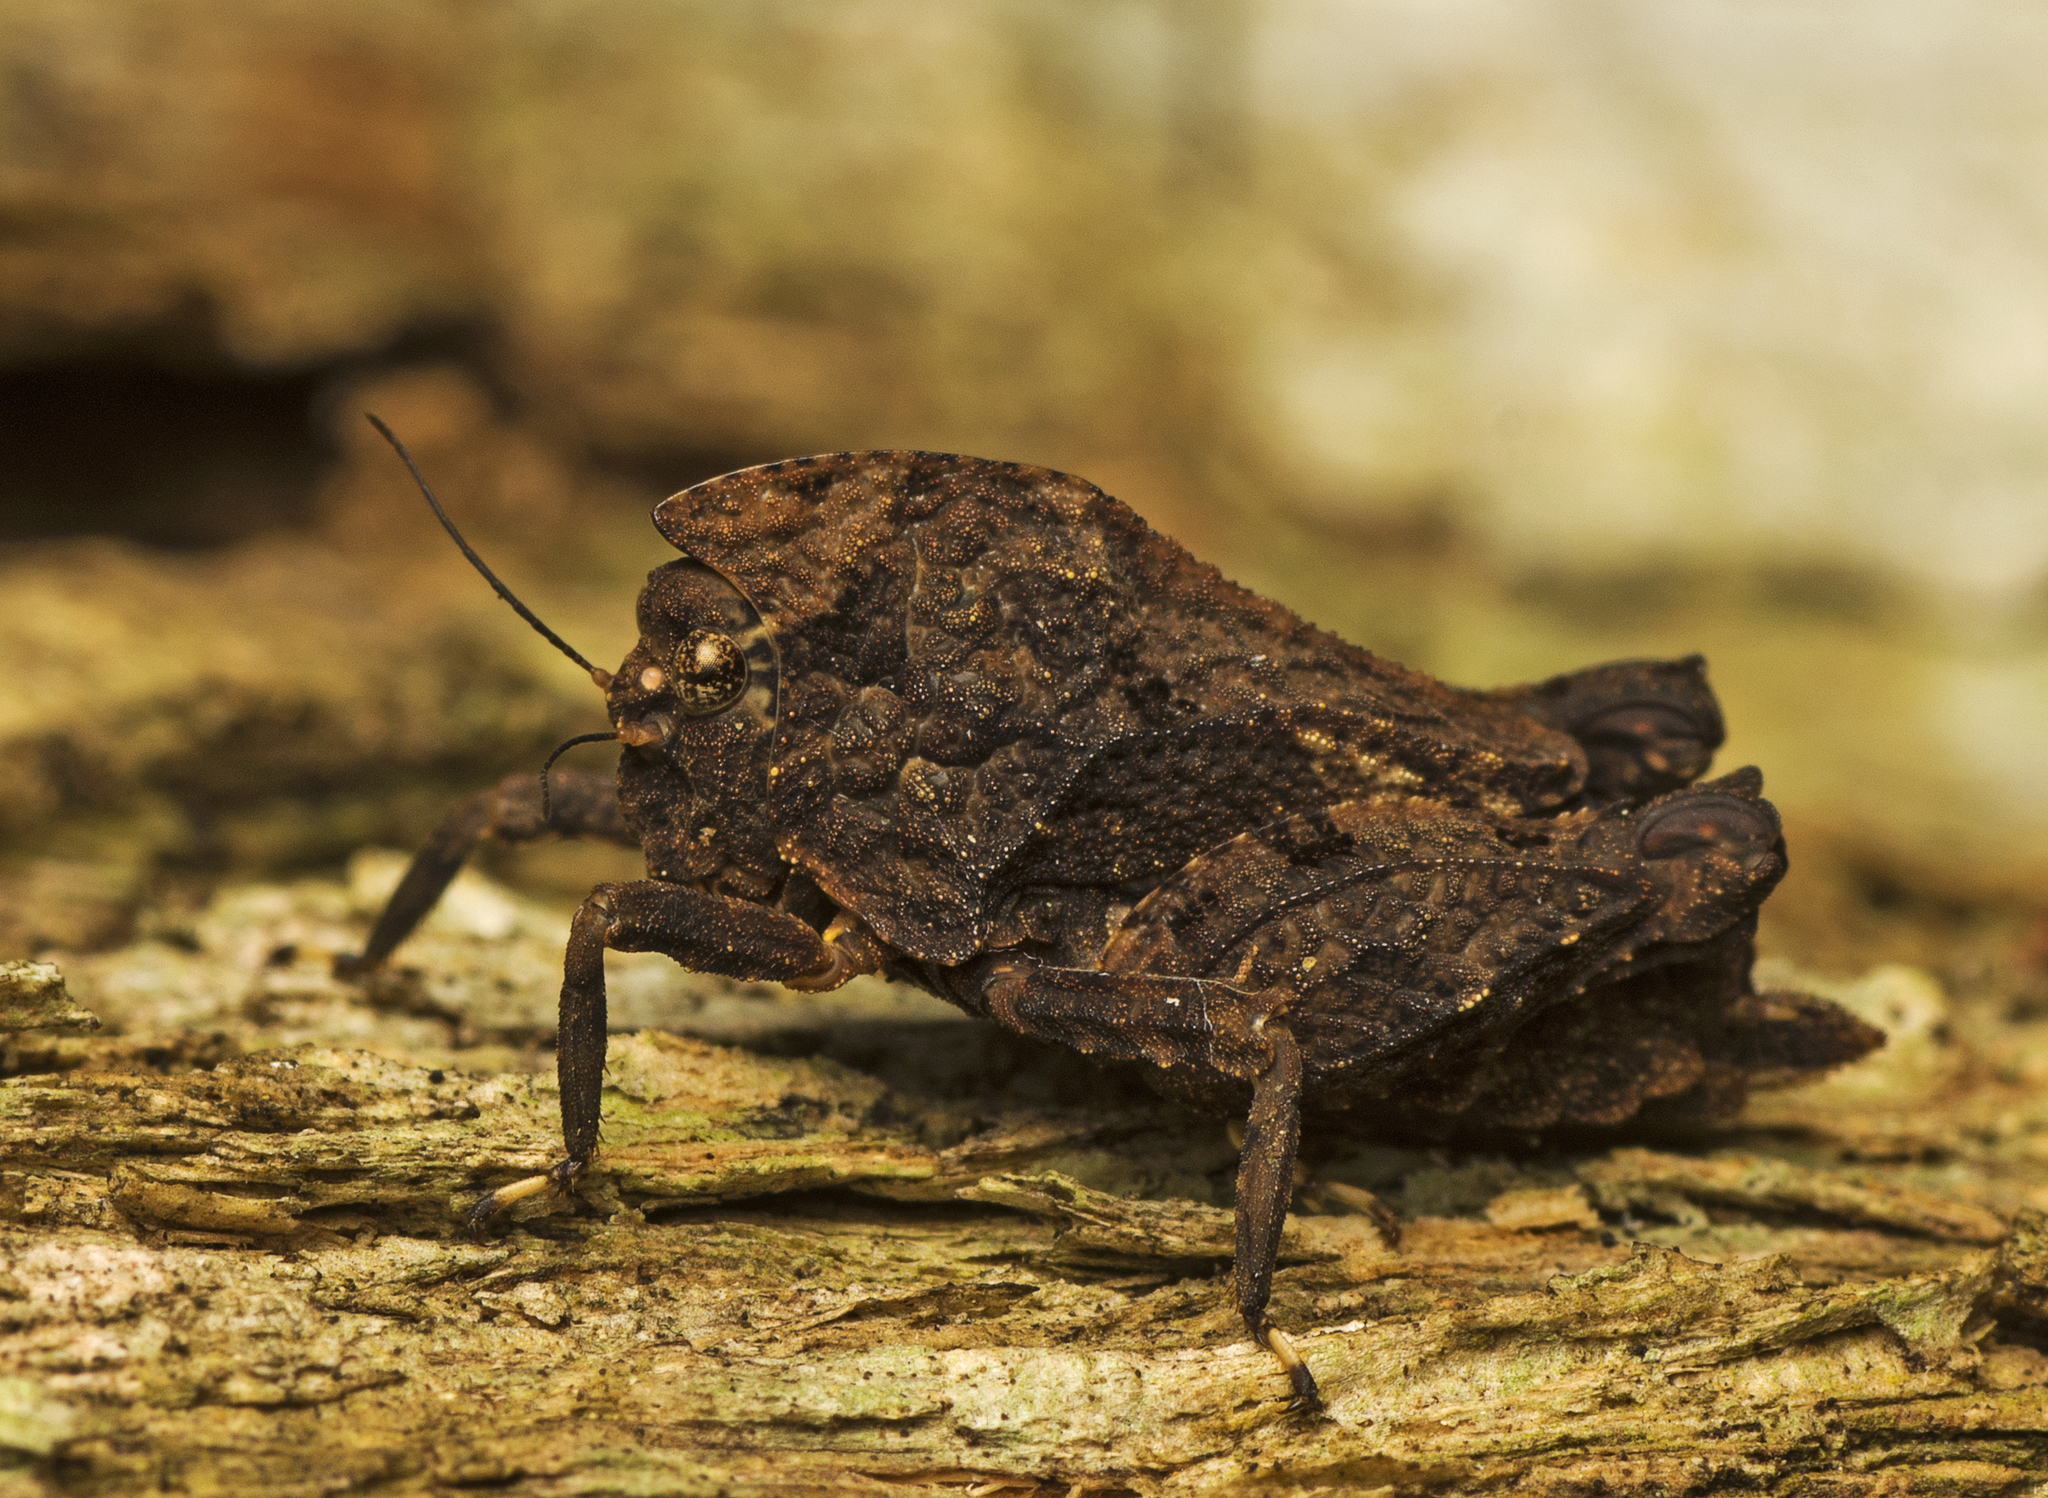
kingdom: Animalia
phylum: Arthropoda
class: Insecta
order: Orthoptera
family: Tetrigidae
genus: Vingselina
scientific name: Vingselina crassa
